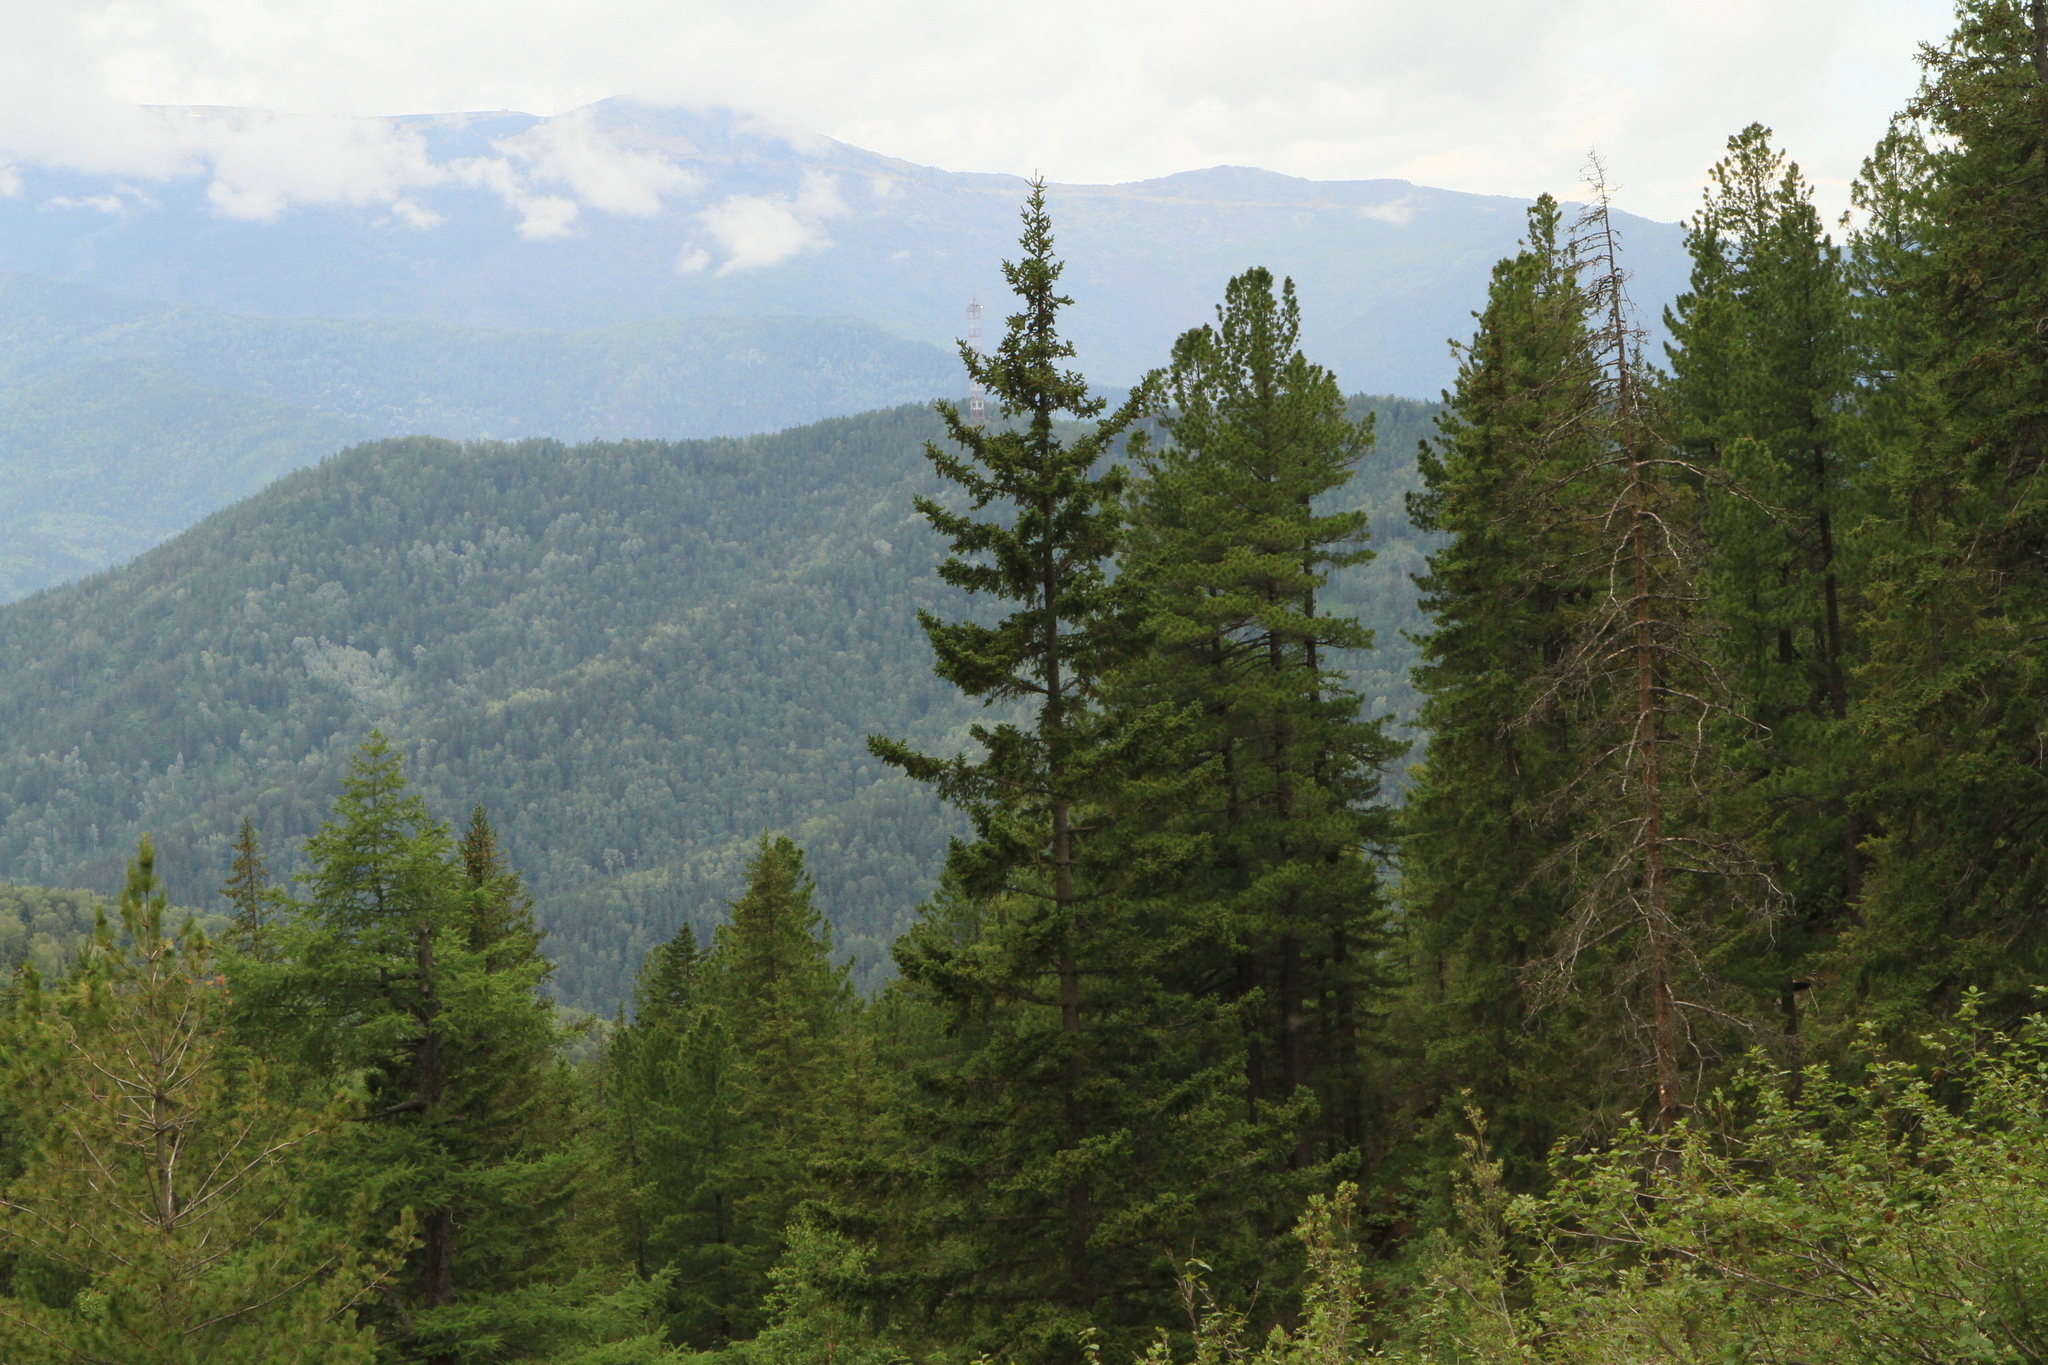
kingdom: Plantae
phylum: Tracheophyta
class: Pinopsida
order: Pinales
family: Pinaceae
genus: Picea
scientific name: Picea obovata
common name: Siberian spruce
